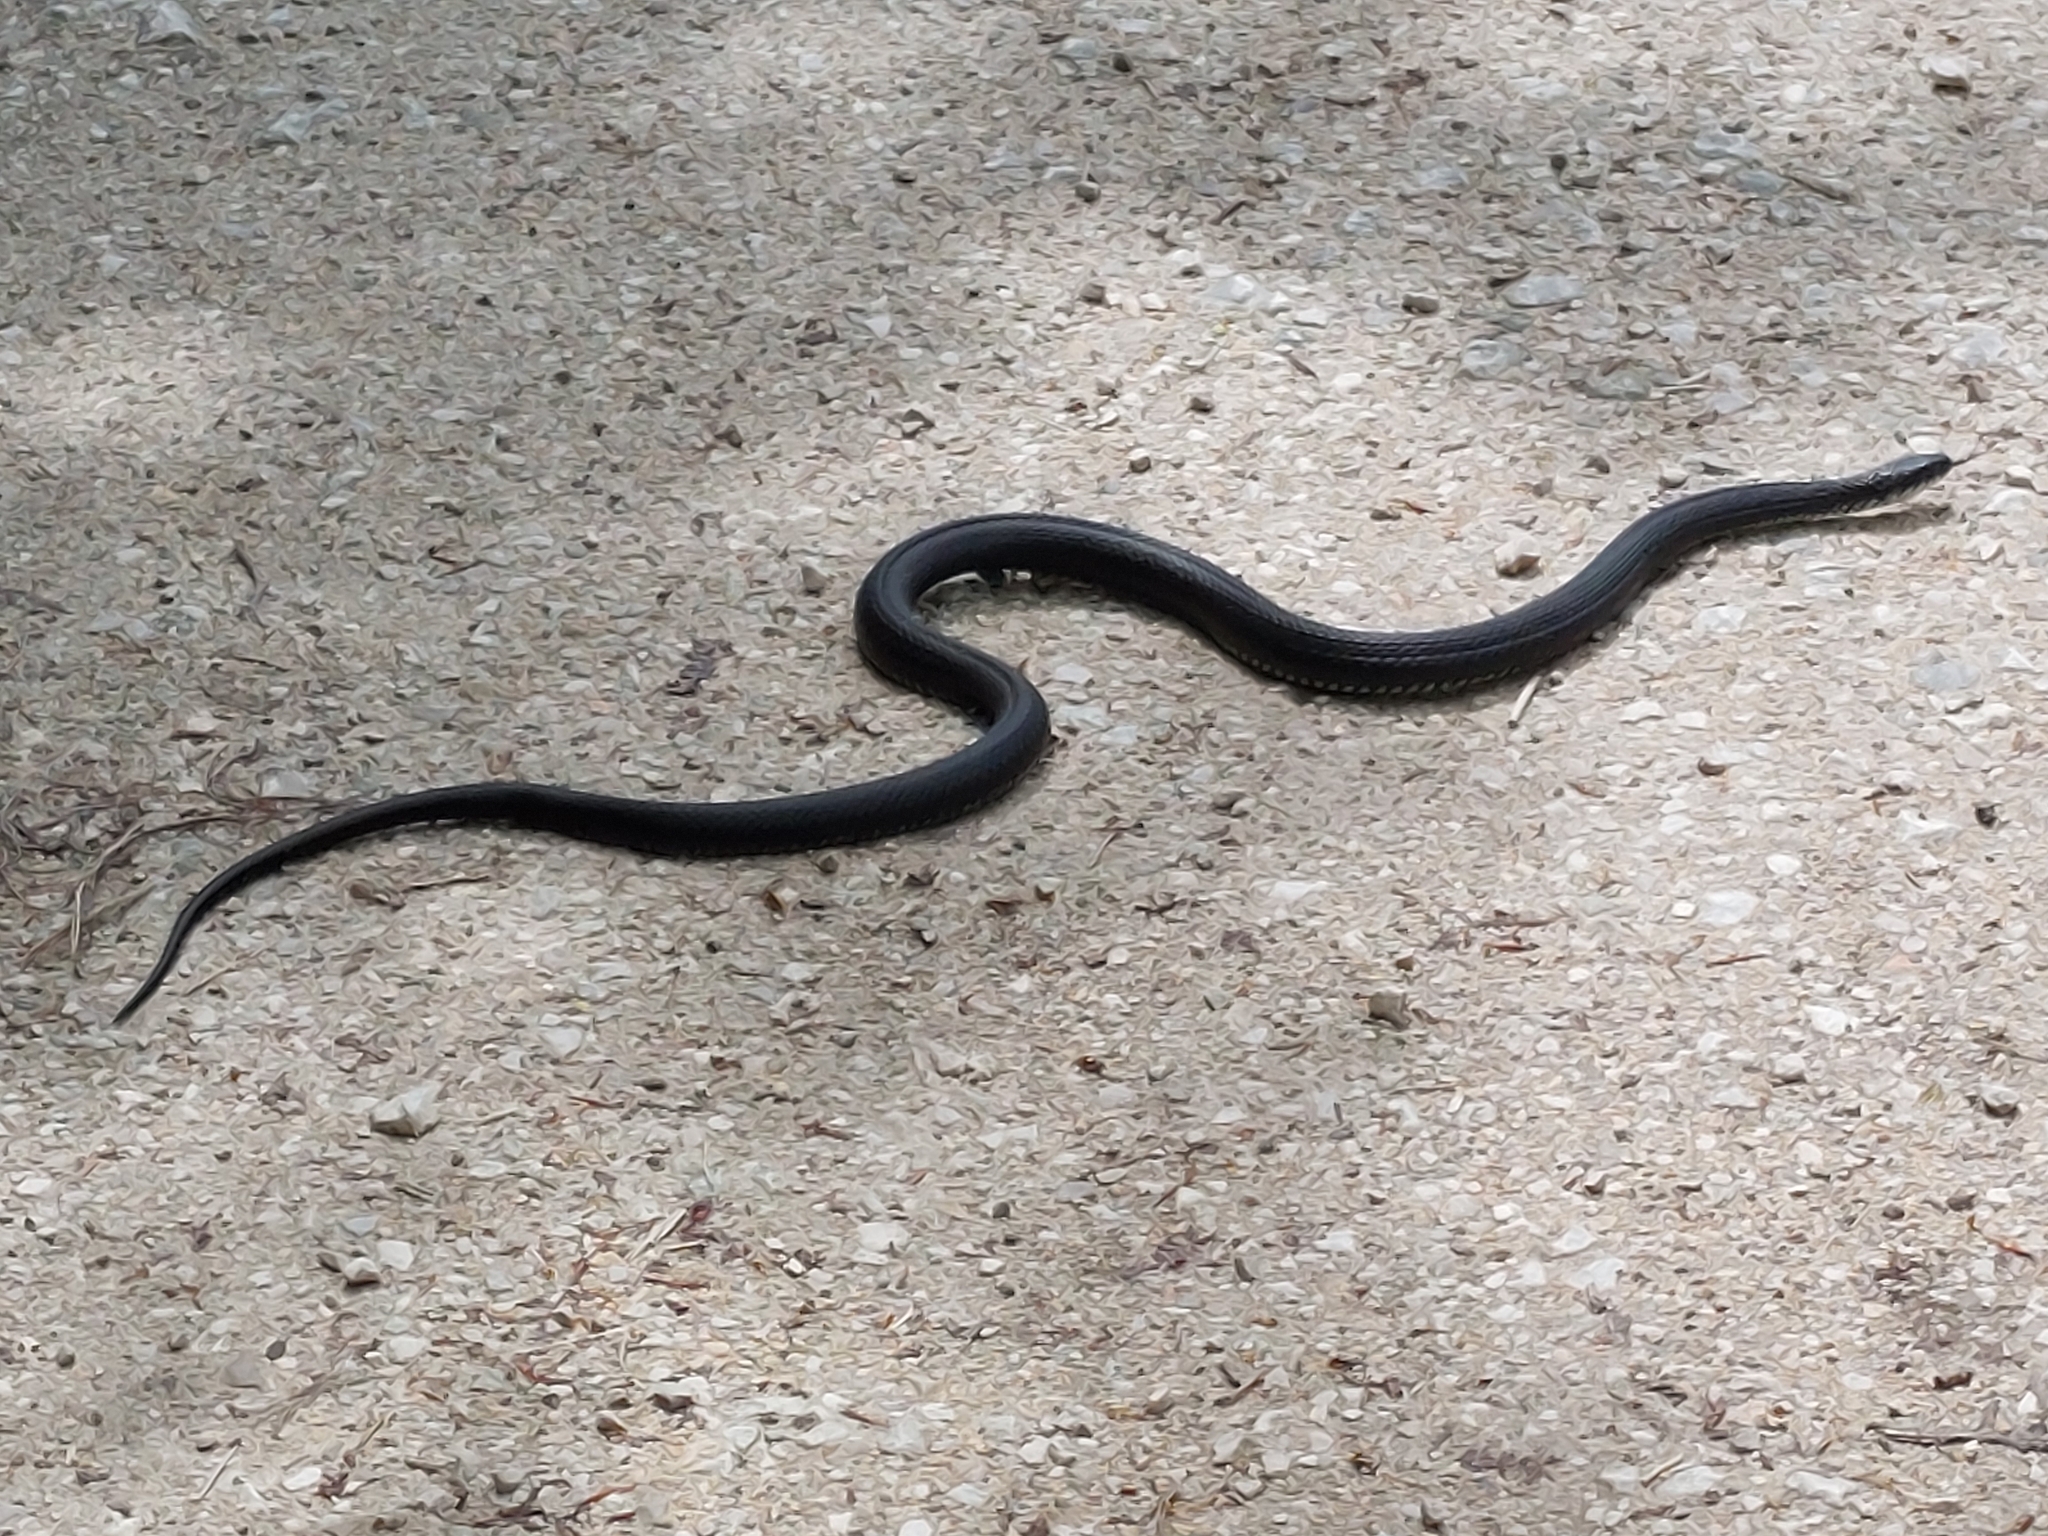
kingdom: Animalia
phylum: Chordata
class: Squamata
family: Colubridae
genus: Natrix
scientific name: Natrix natrix
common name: Grass snake
